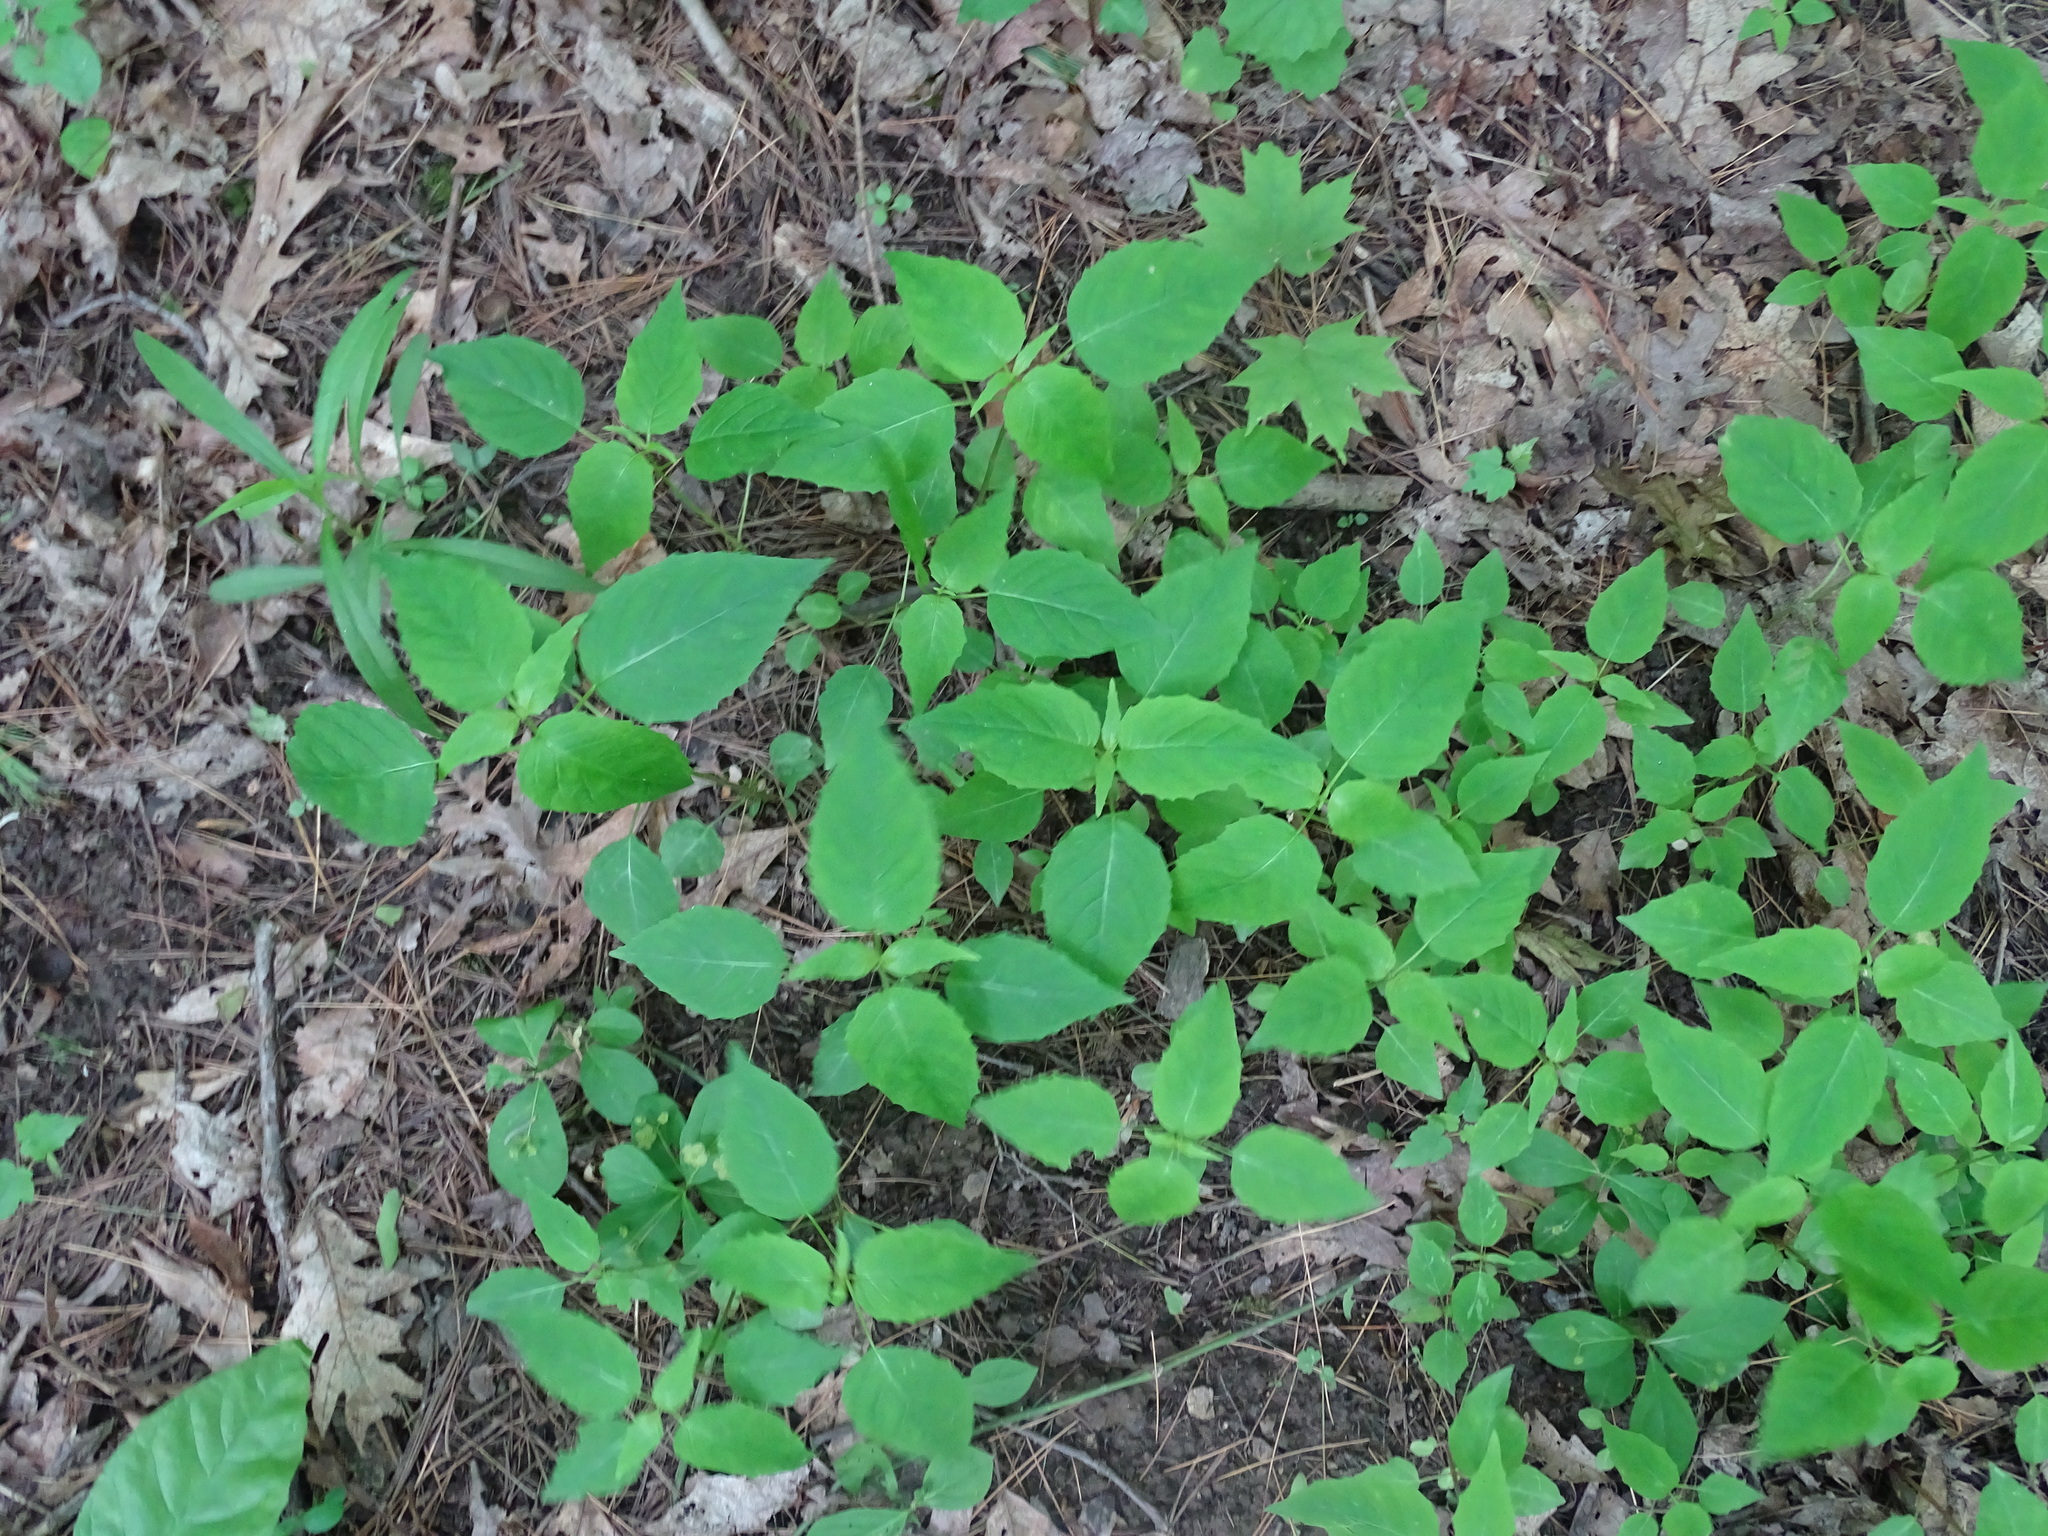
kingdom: Plantae
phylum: Tracheophyta
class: Magnoliopsida
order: Myrtales
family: Onagraceae
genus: Circaea
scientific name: Circaea canadensis
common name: Broad-leaved enchanter's nightshade
